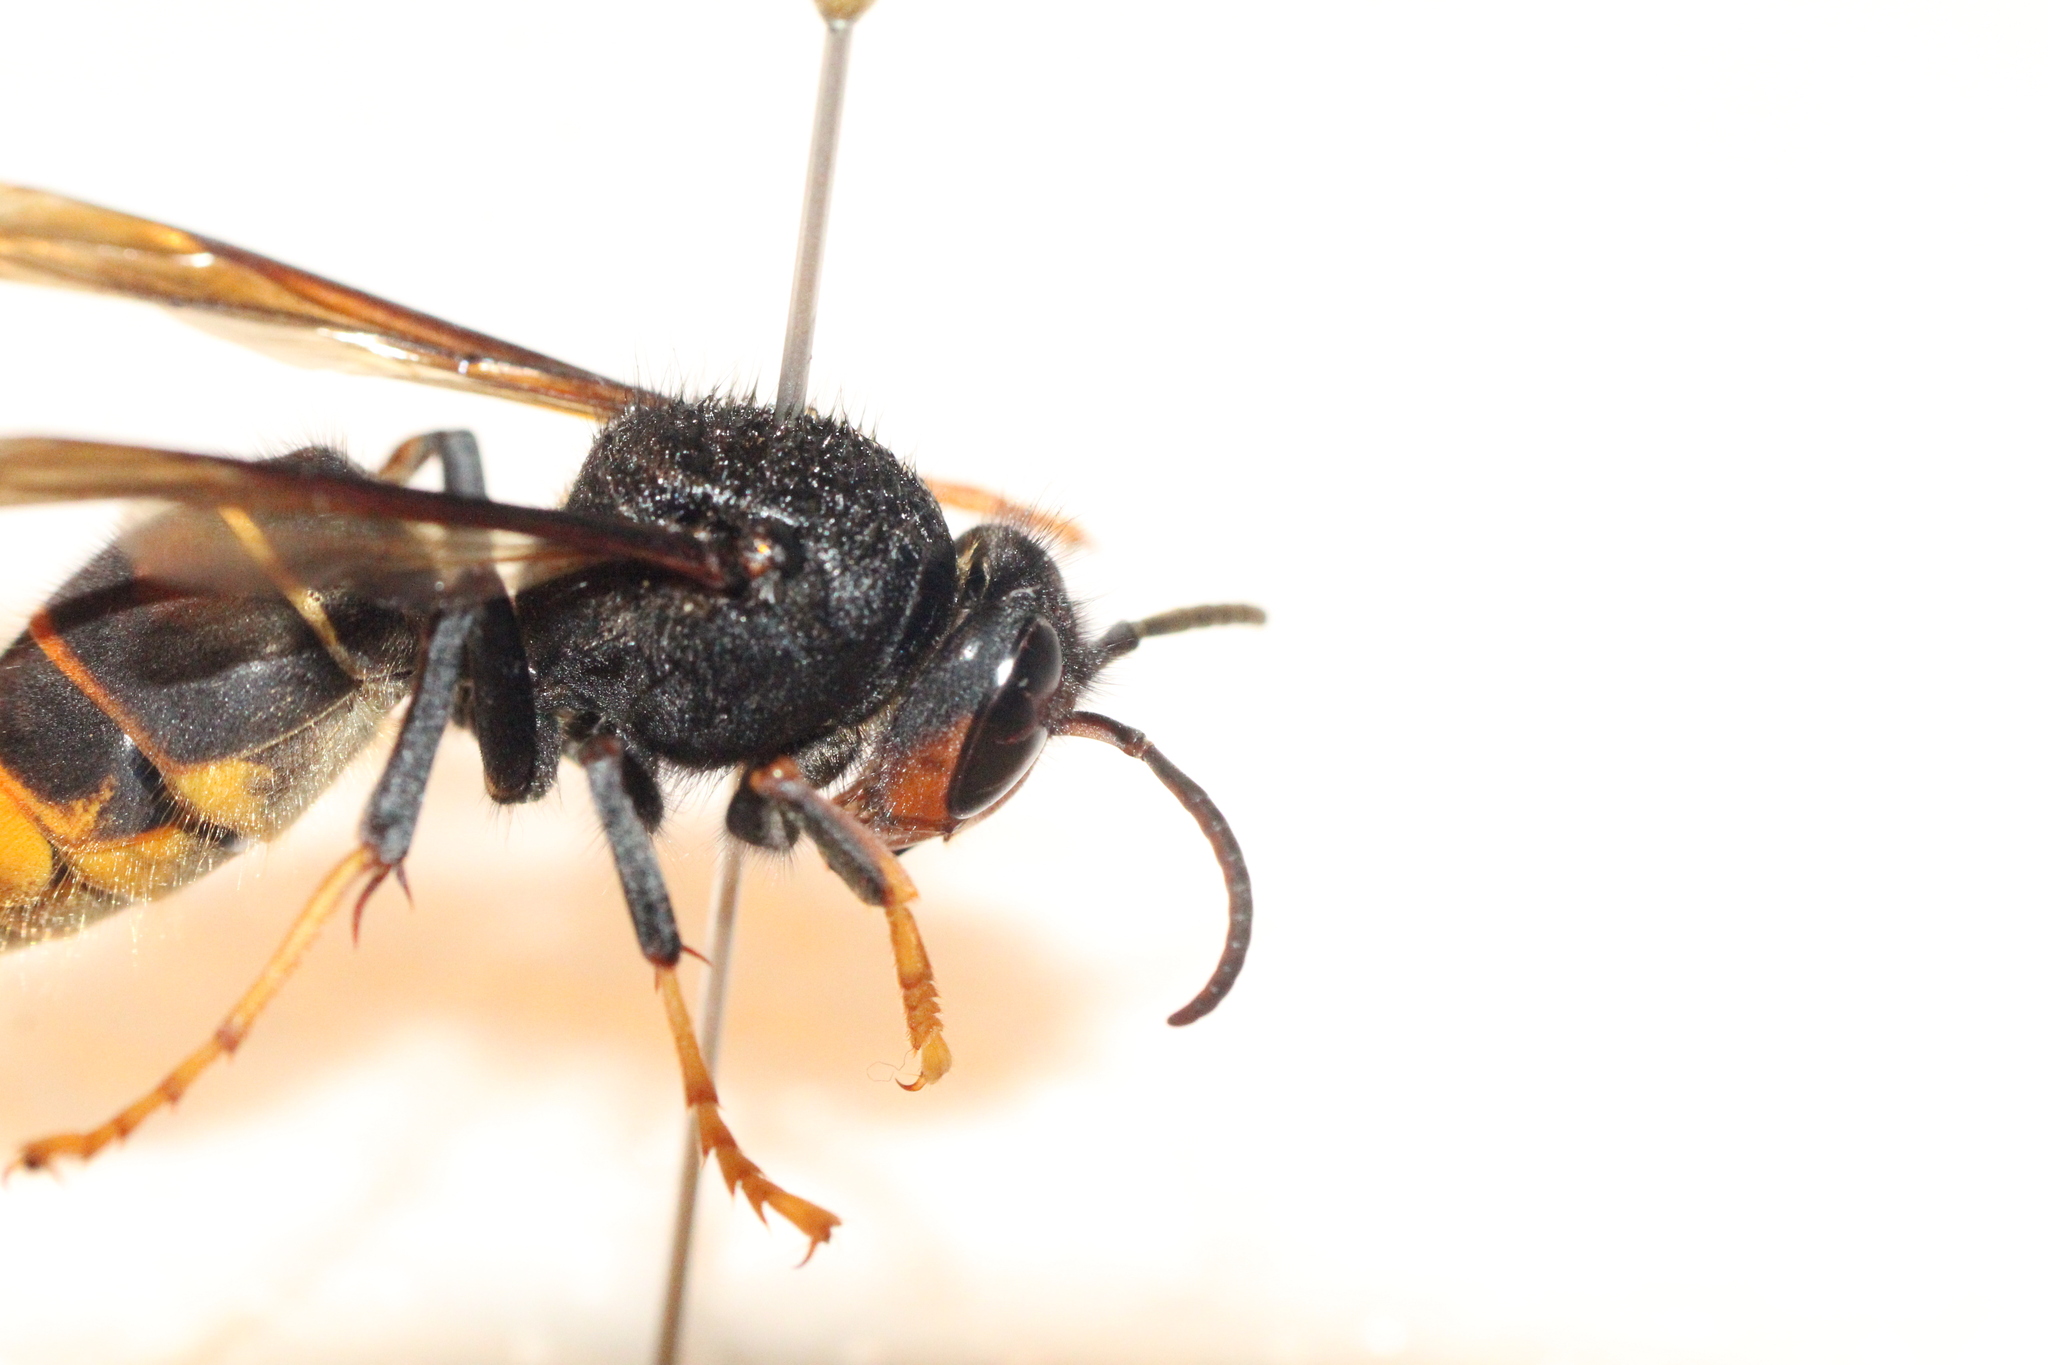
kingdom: Animalia
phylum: Arthropoda
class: Insecta
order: Hymenoptera
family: Vespidae
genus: Vespa
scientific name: Vespa velutina
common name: Asian hornet
